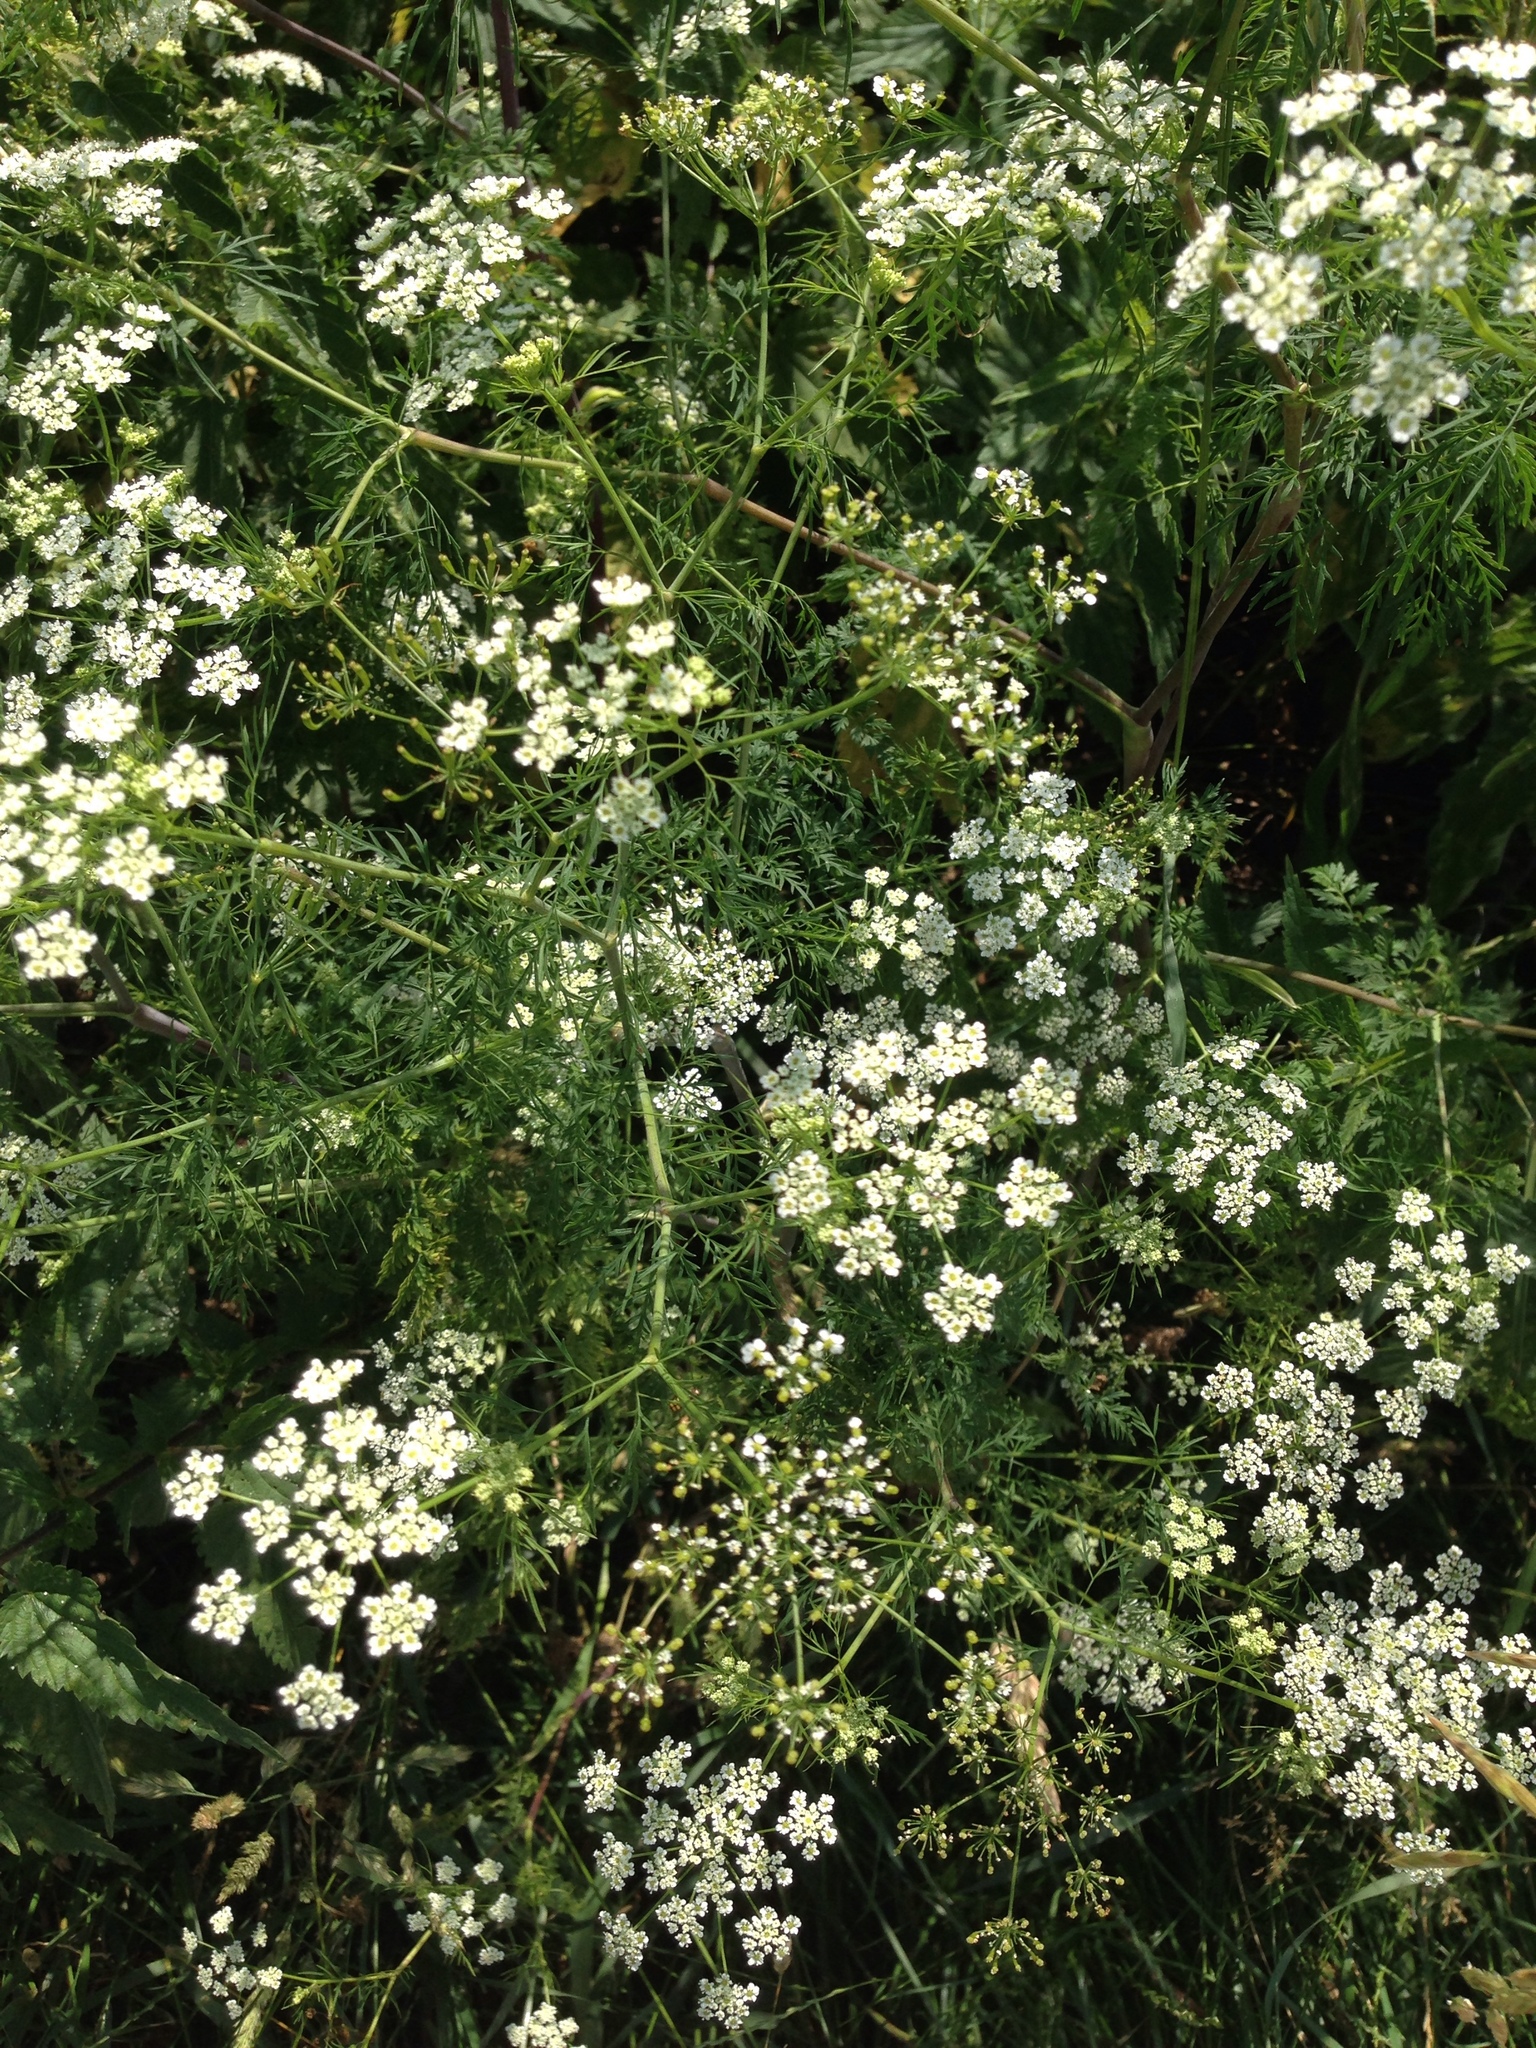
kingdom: Plantae
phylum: Tracheophyta
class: Magnoliopsida
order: Apiales
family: Apiaceae
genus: Chaerophyllum
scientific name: Chaerophyllum bulbosum
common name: Bulbous chervil
